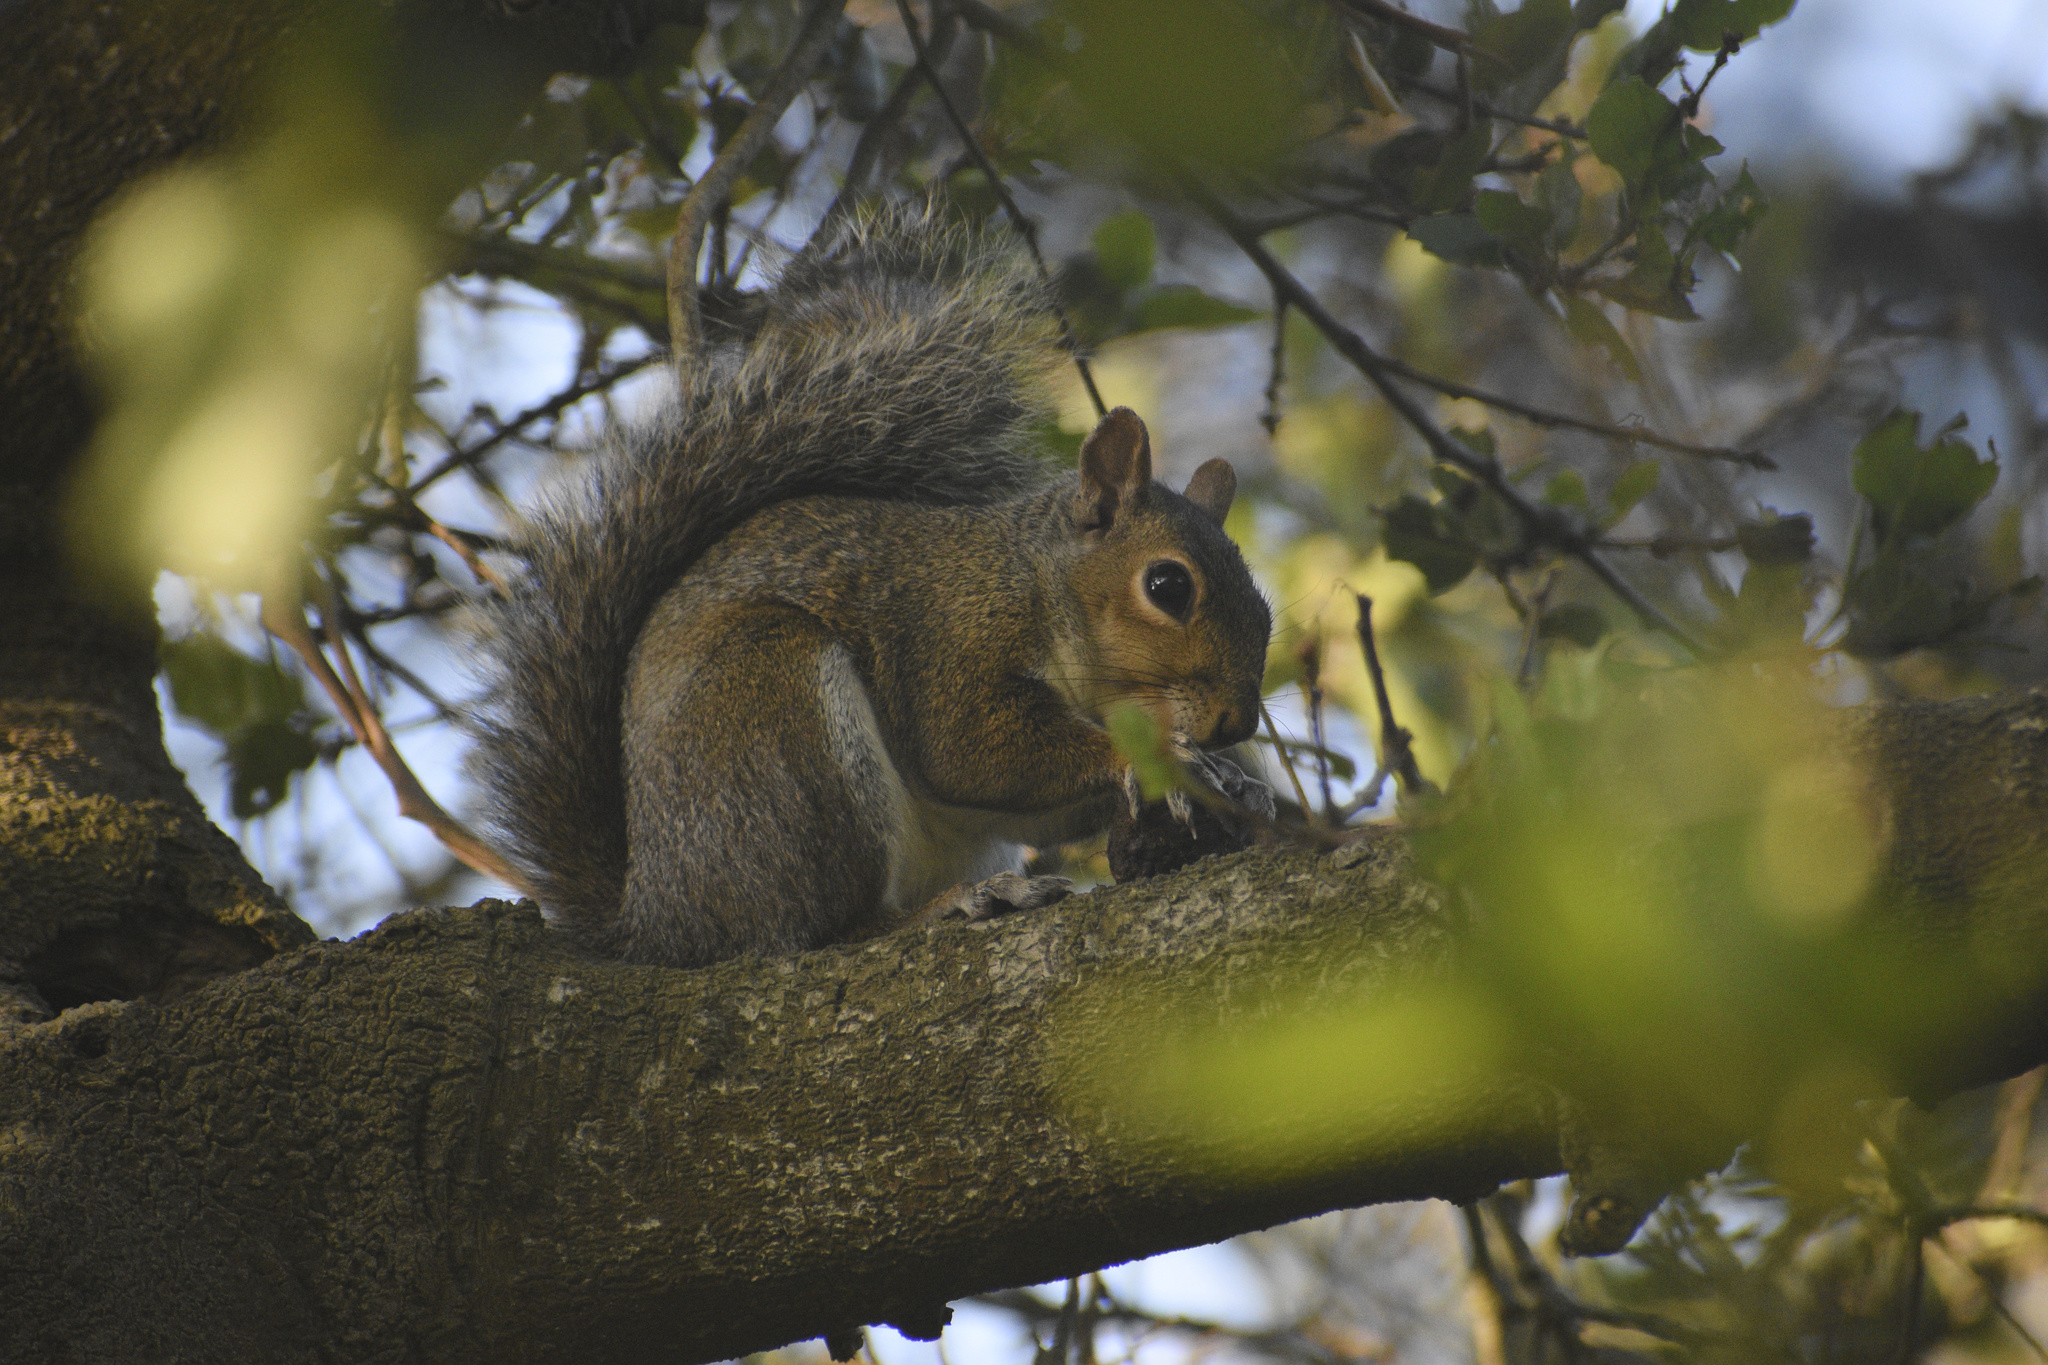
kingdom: Animalia
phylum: Chordata
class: Mammalia
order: Rodentia
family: Sciuridae
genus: Sciurus
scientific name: Sciurus carolinensis
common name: Eastern gray squirrel
